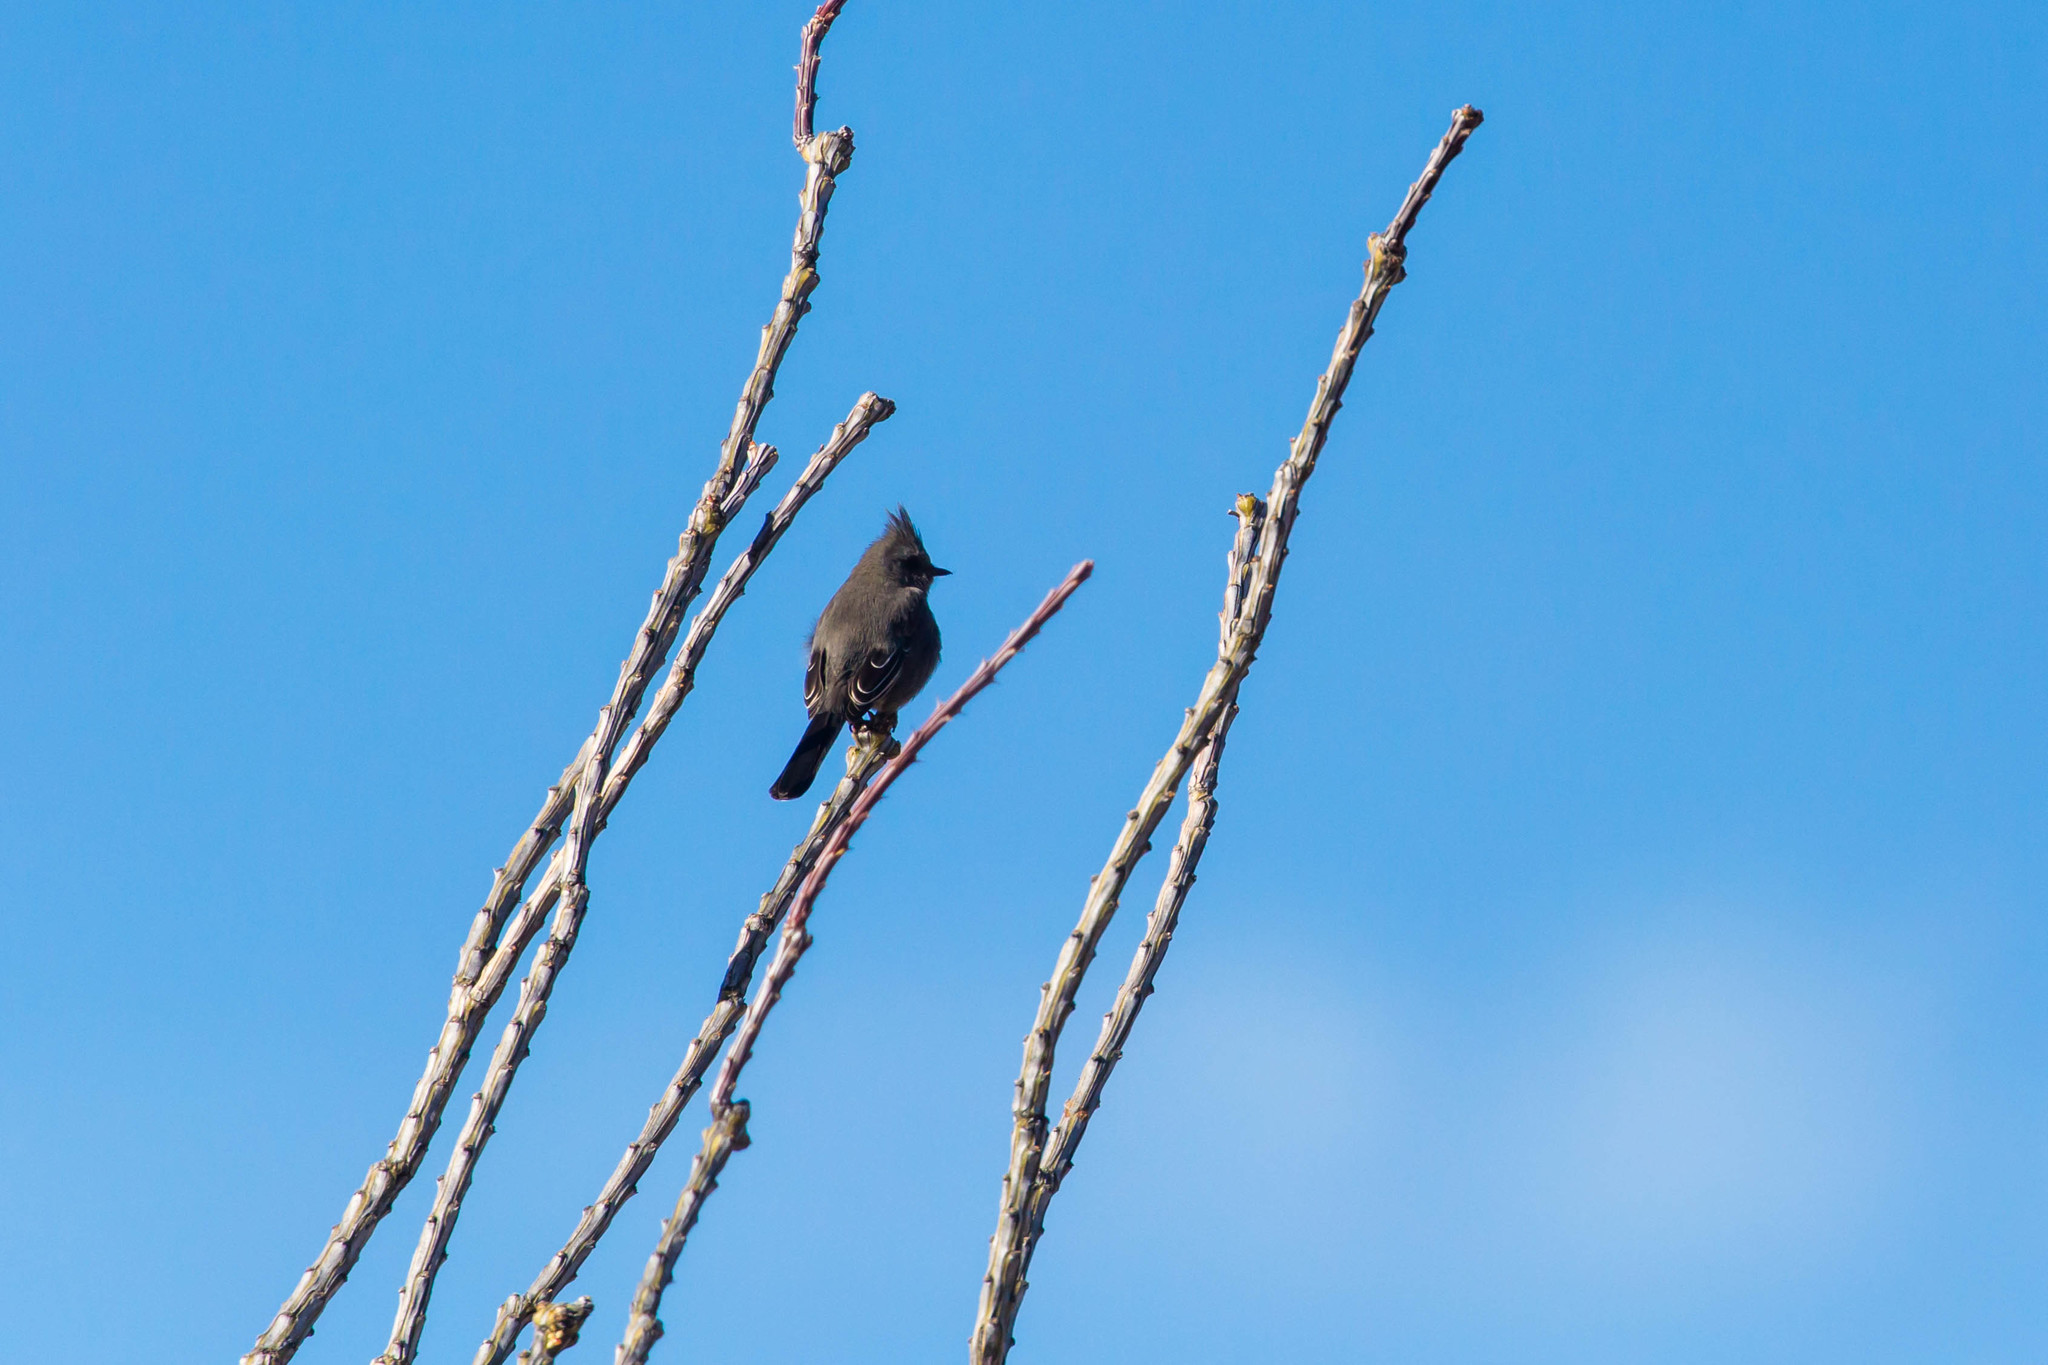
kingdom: Animalia
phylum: Chordata
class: Aves
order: Passeriformes
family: Ptilogonatidae
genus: Phainopepla
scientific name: Phainopepla nitens
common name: Phainopepla
